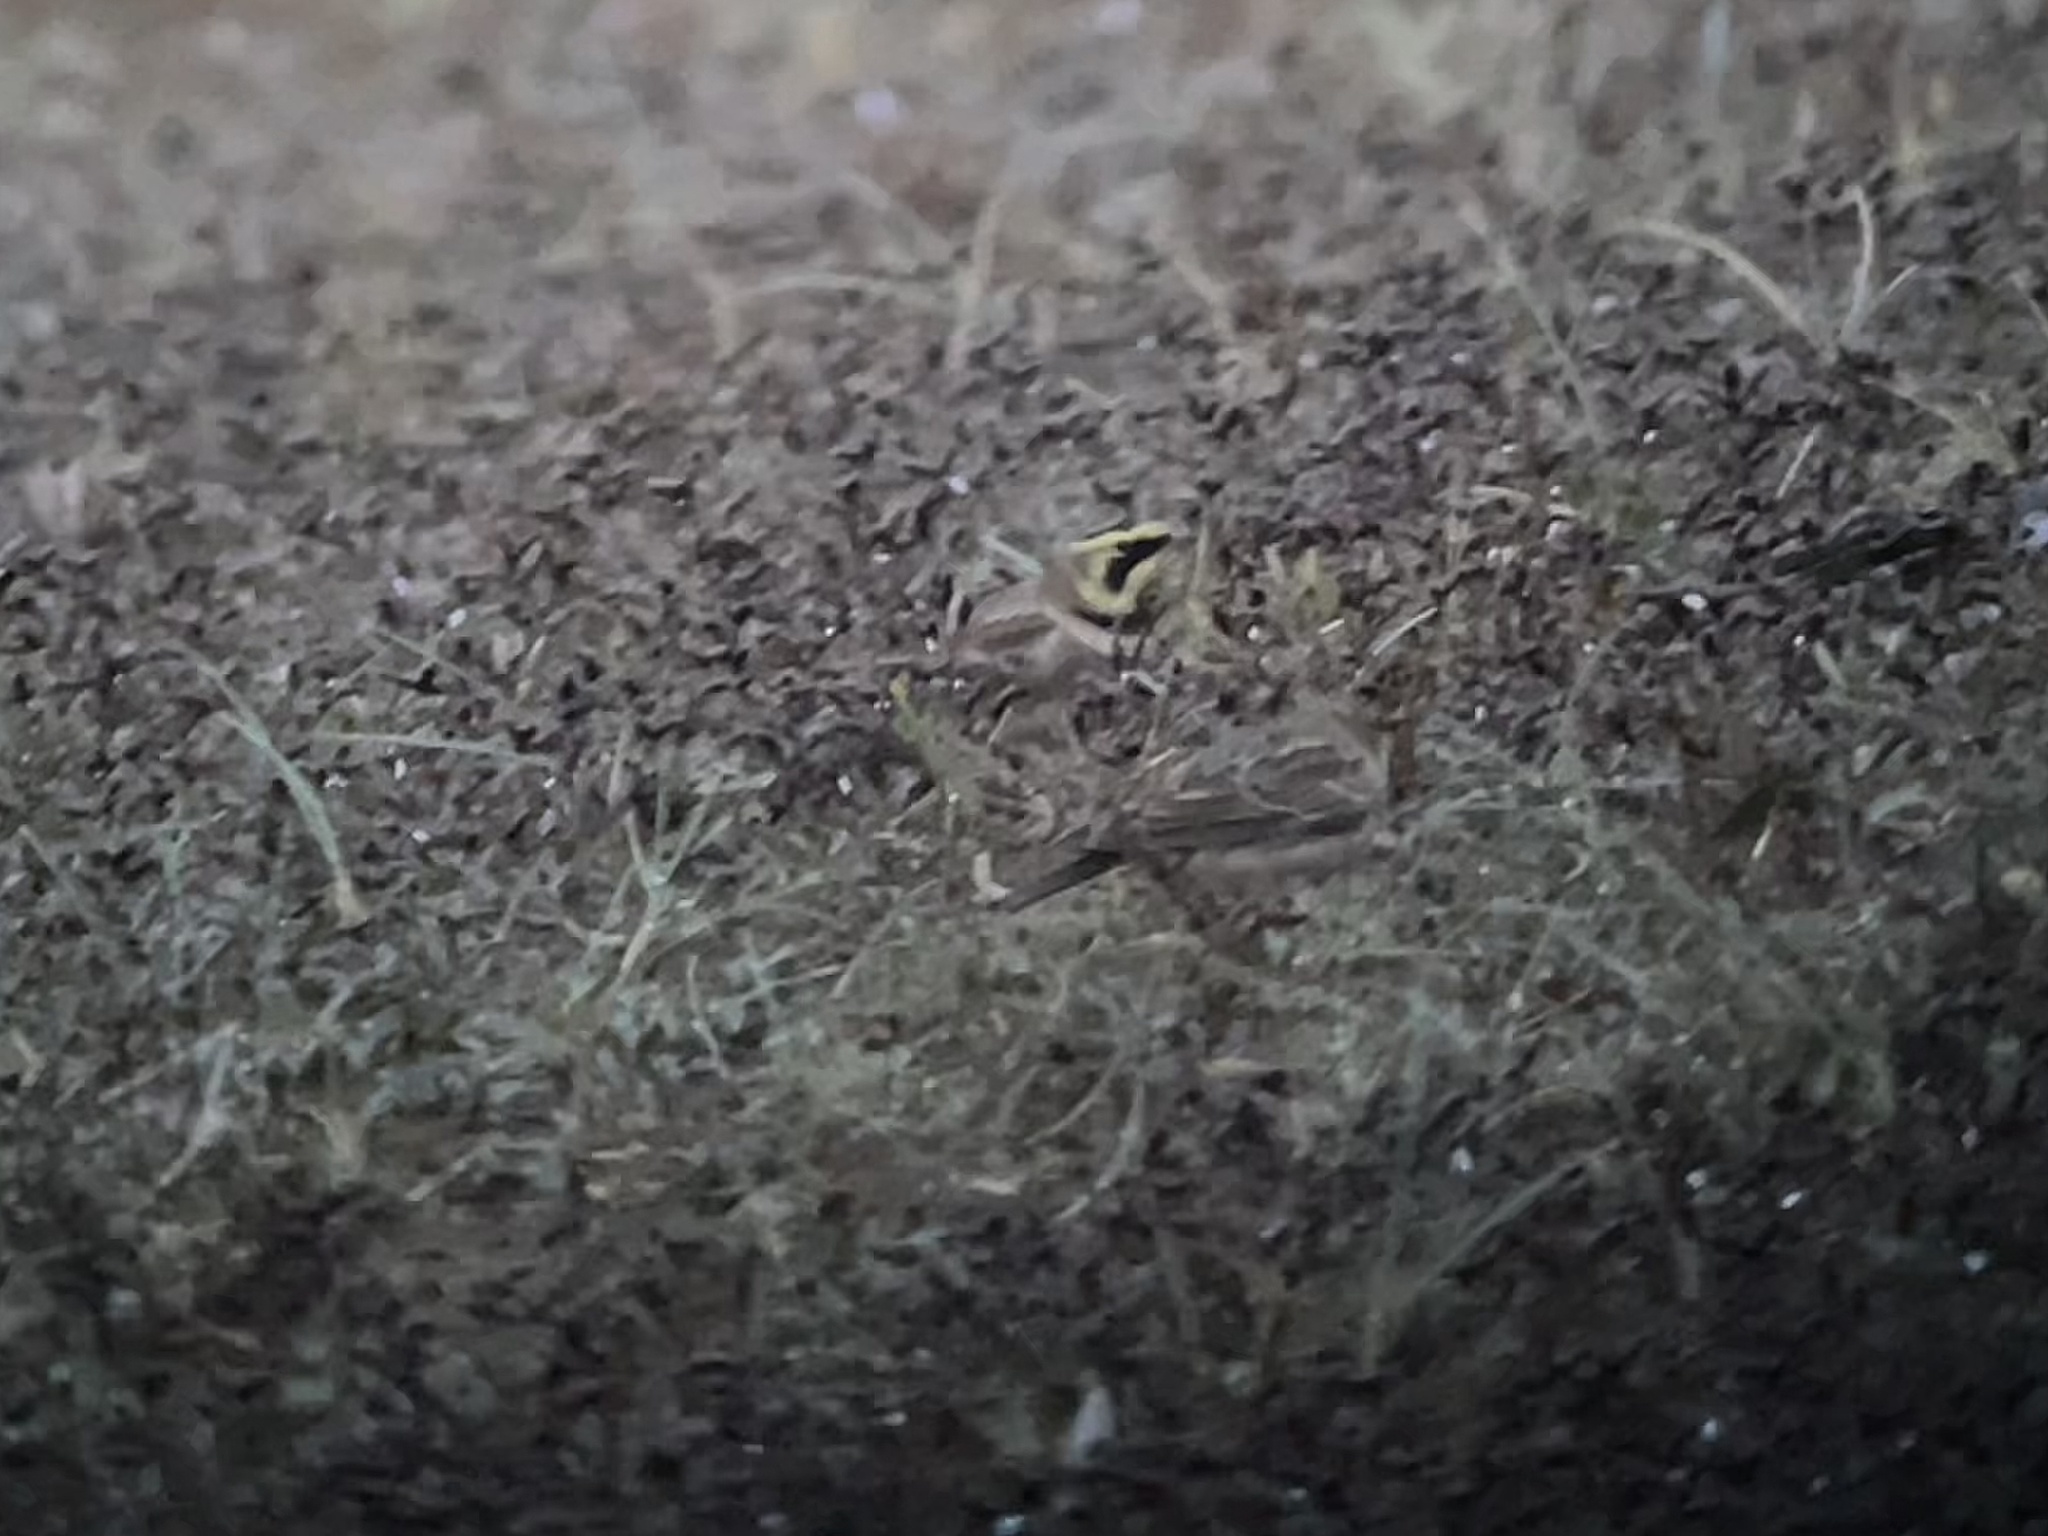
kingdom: Animalia
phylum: Chordata
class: Aves
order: Passeriformes
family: Alaudidae
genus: Eremophila
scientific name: Eremophila alpestris
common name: Horned lark
